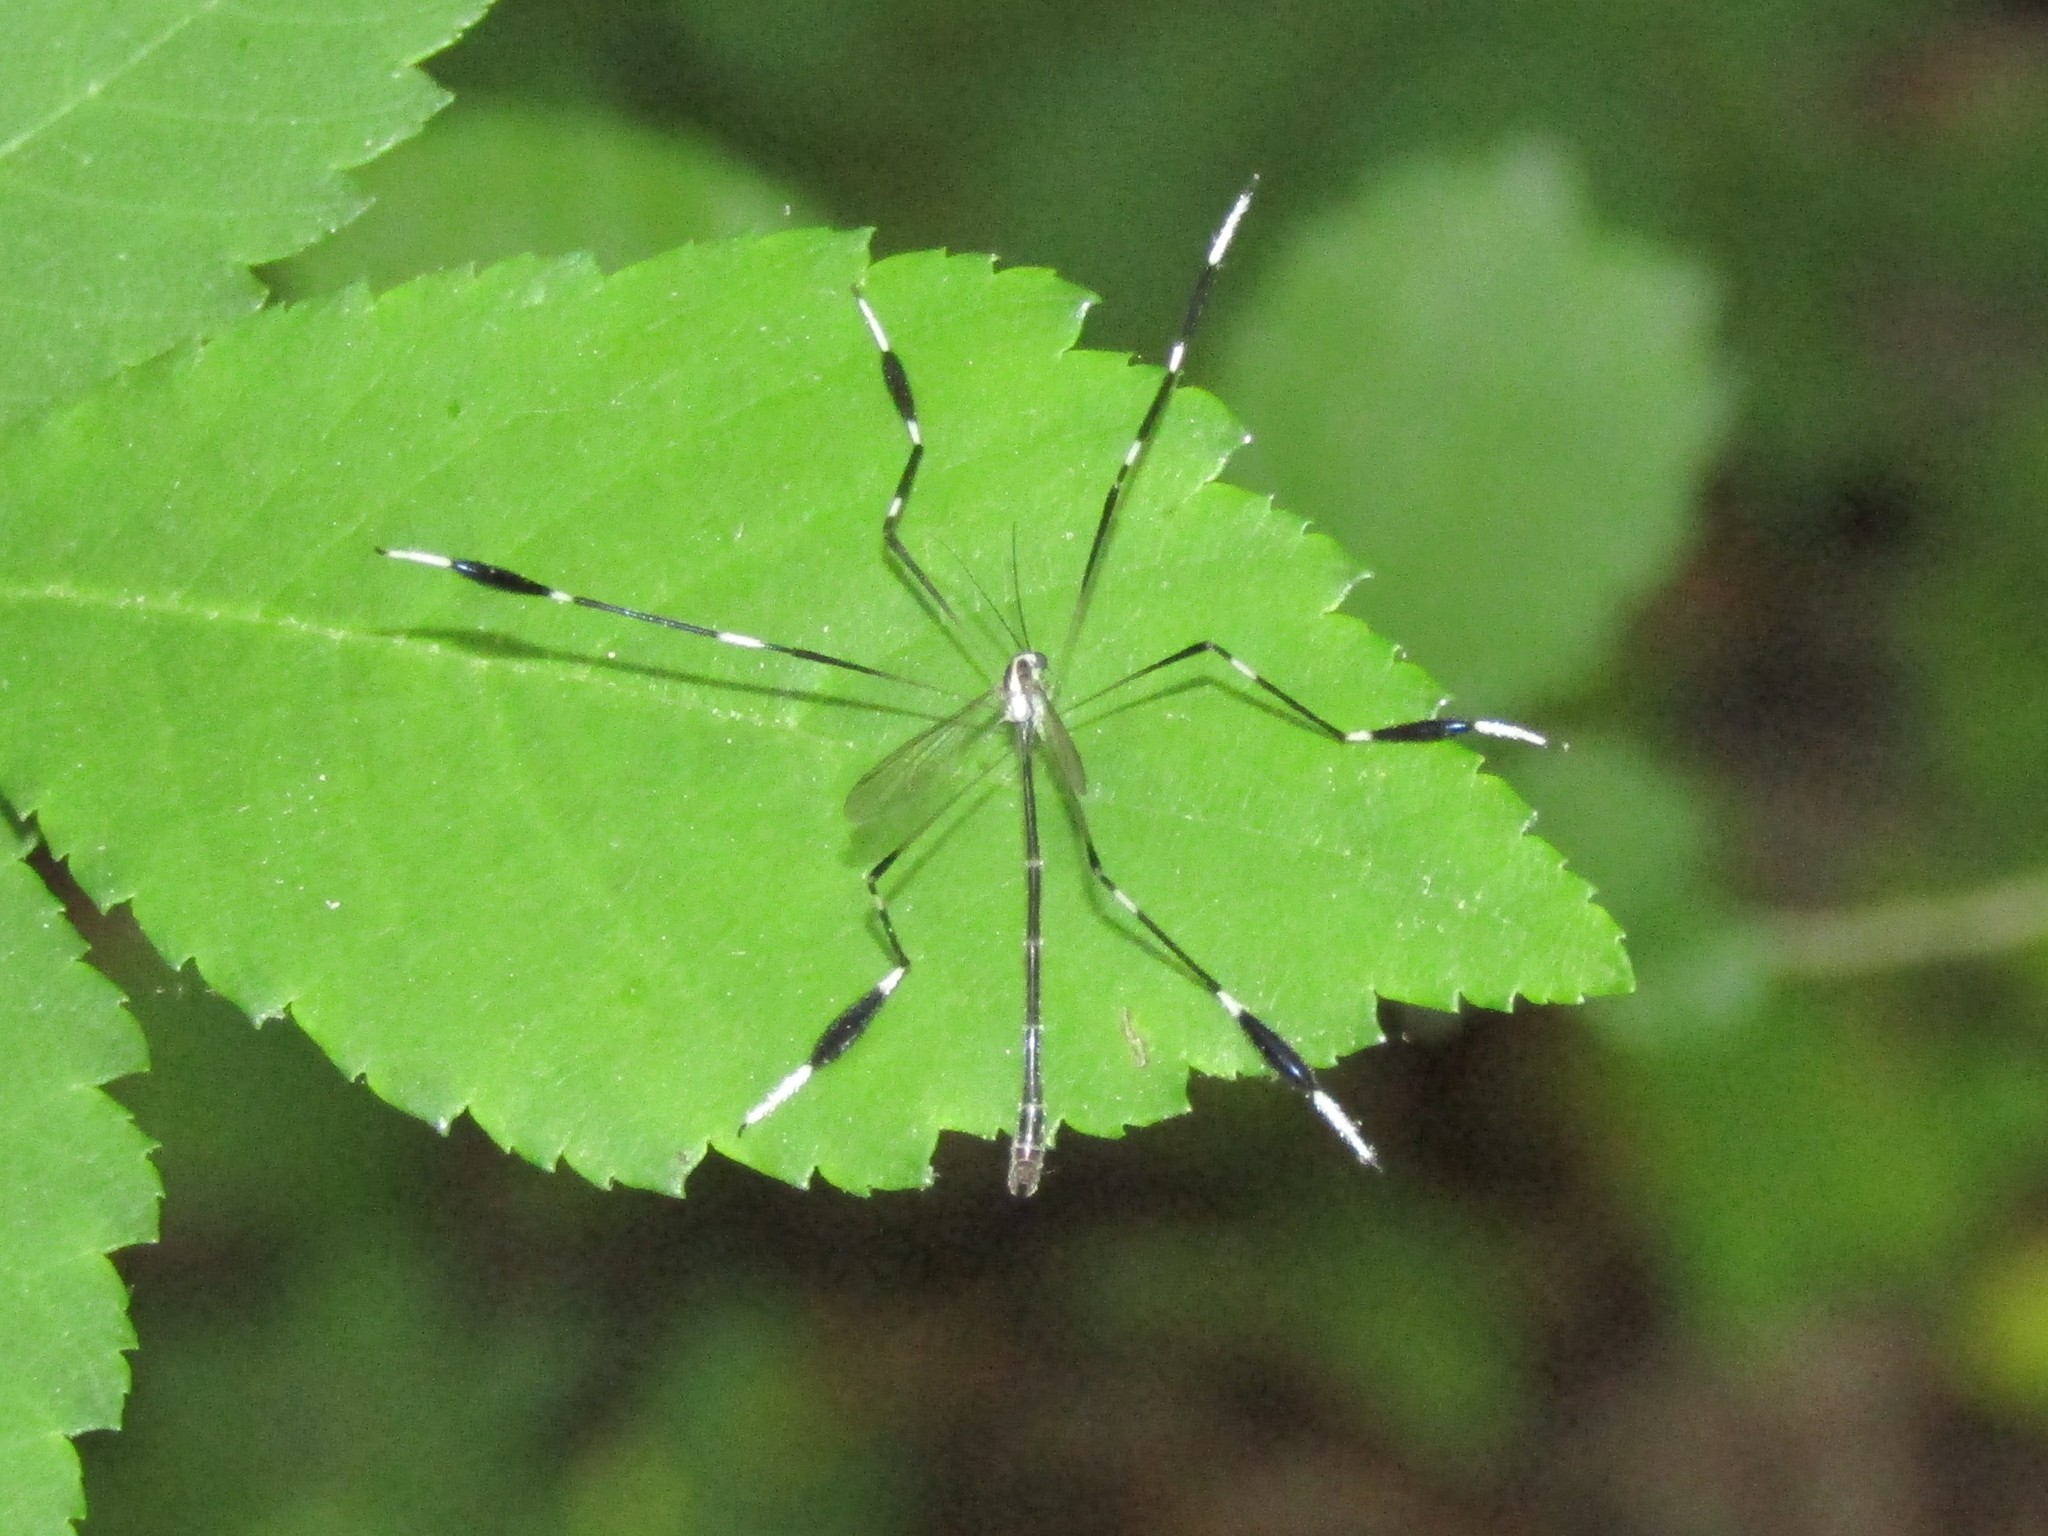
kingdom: Animalia
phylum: Arthropoda
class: Insecta
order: Diptera
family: Ptychopteridae
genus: Bittacomorpha
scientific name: Bittacomorpha clavipes
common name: Eastern phantom crane fly
